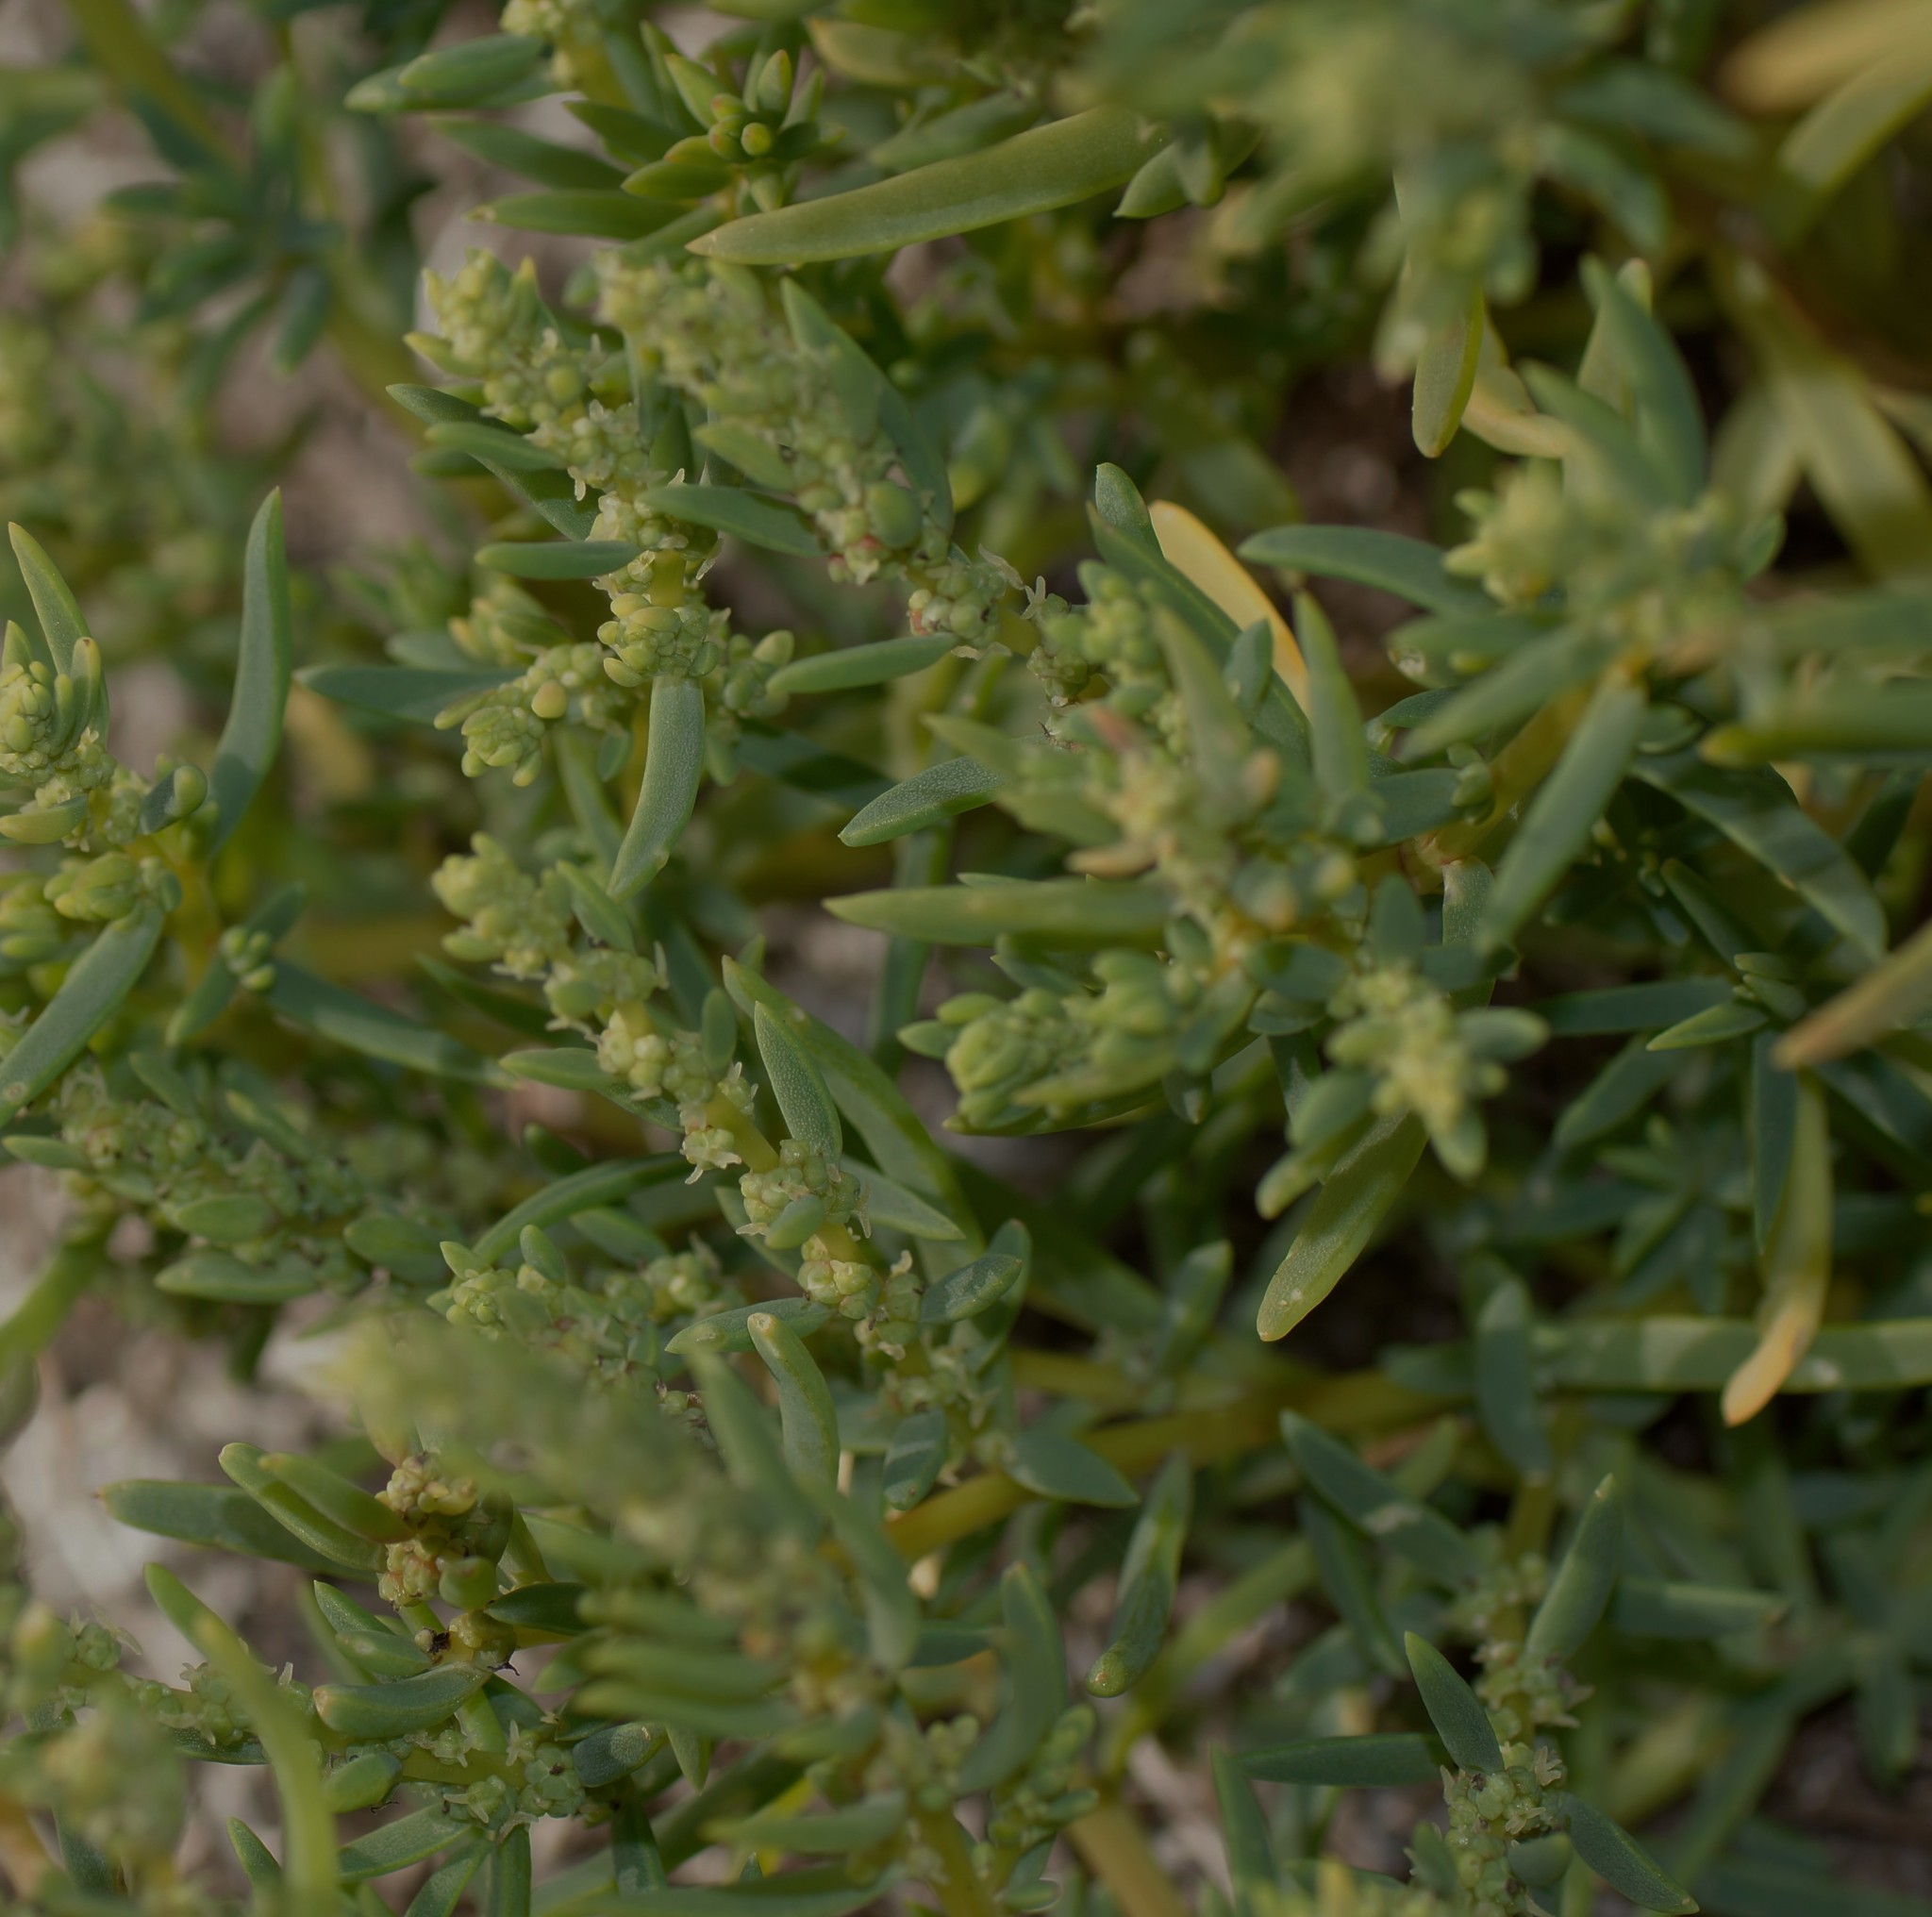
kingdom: Plantae
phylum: Tracheophyta
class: Magnoliopsida
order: Caryophyllales
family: Amaranthaceae
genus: Suaeda
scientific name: Suaeda australis
